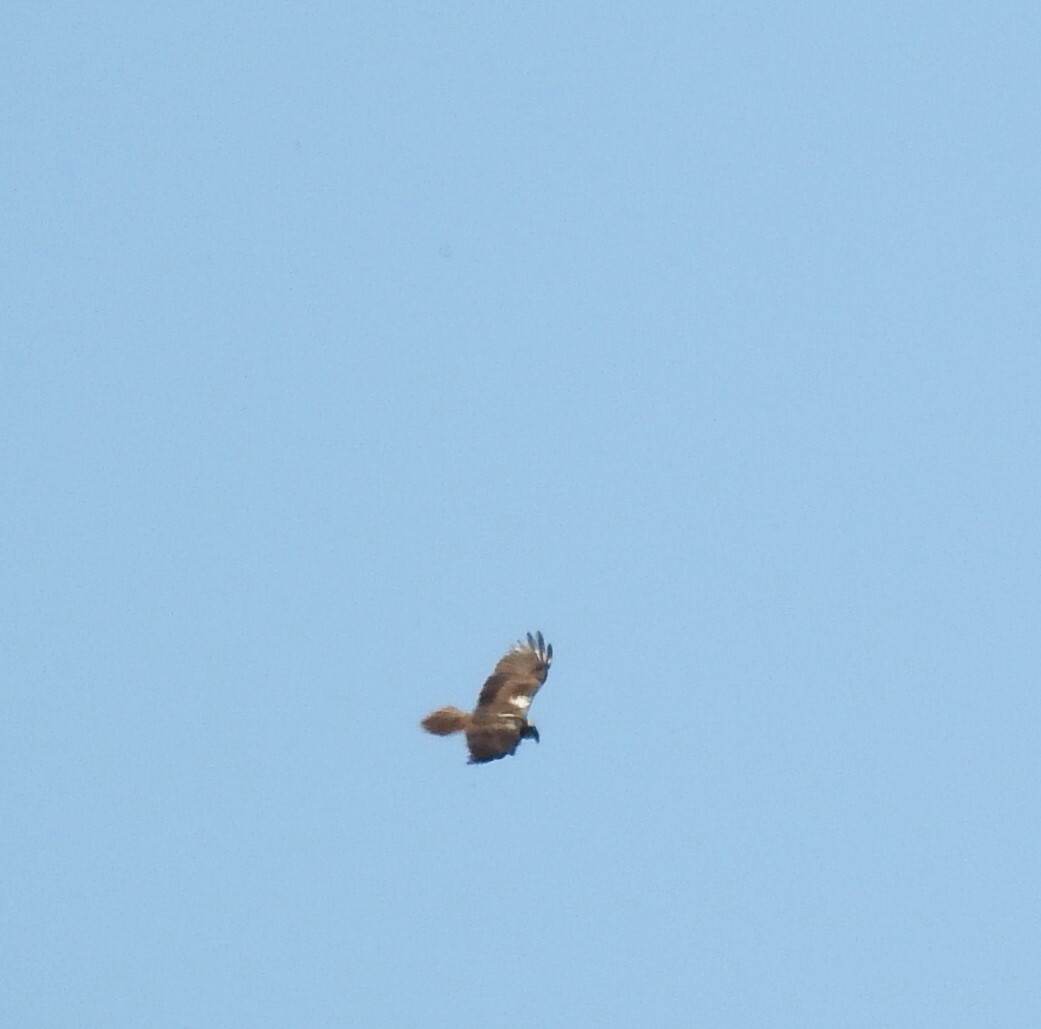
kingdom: Animalia
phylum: Chordata
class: Aves
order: Accipitriformes
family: Accipitridae
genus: Circus
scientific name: Circus aeruginosus
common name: Western marsh harrier
